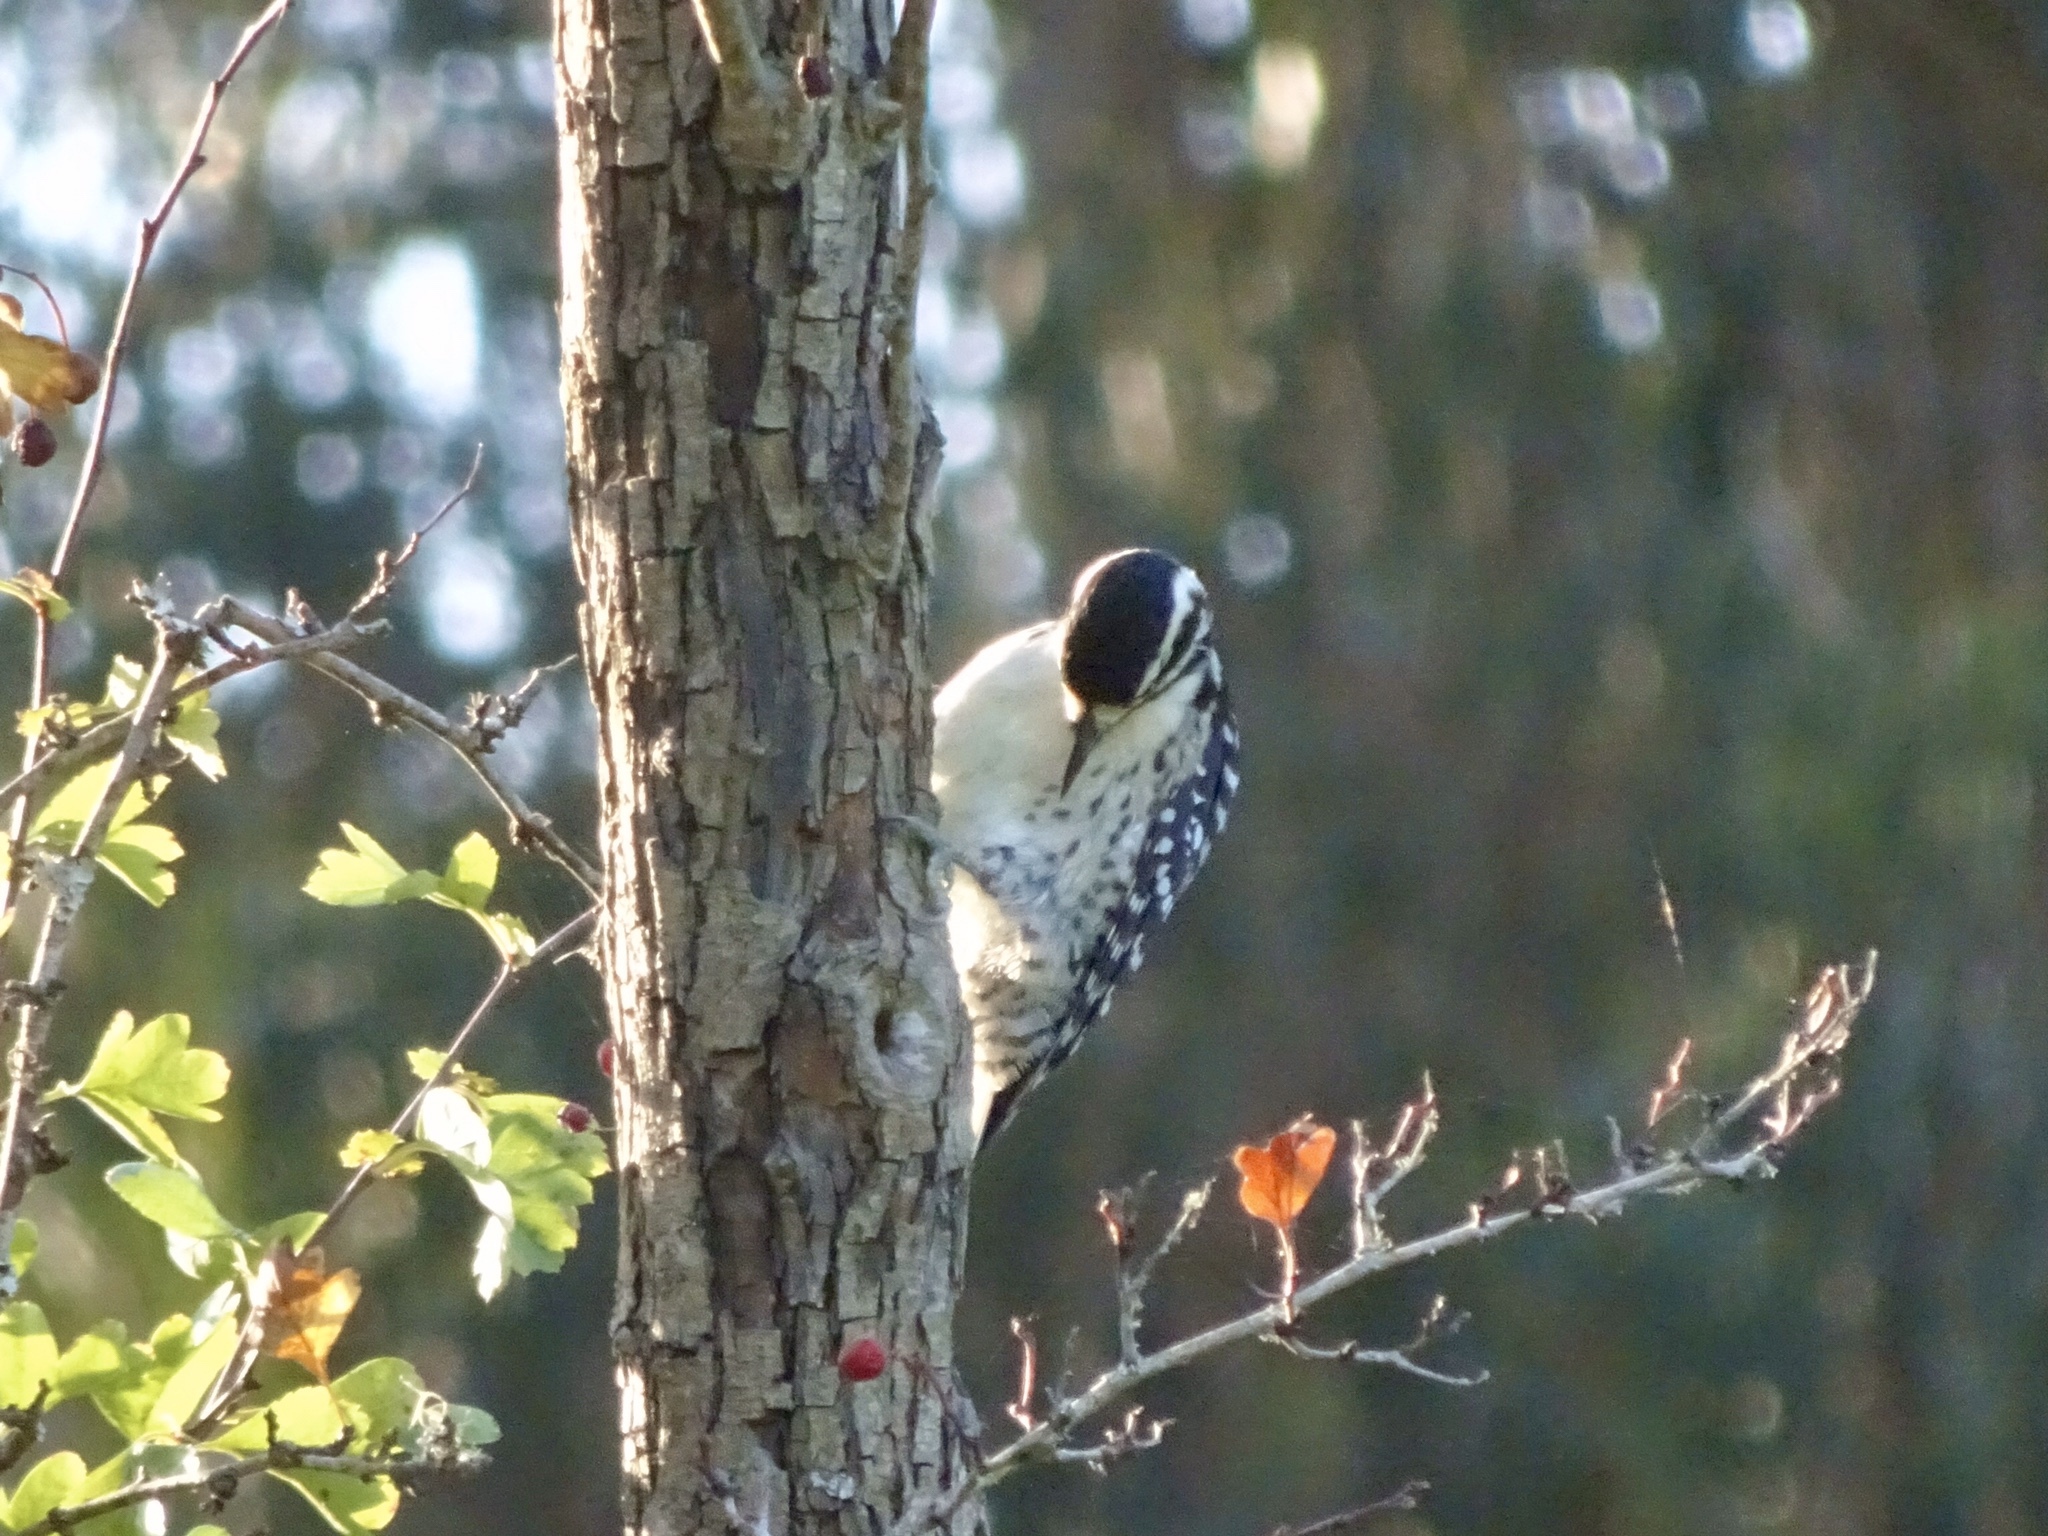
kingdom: Animalia
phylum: Chordata
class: Aves
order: Piciformes
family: Picidae
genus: Dryobates
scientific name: Dryobates nuttallii
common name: Nuttall's woodpecker
